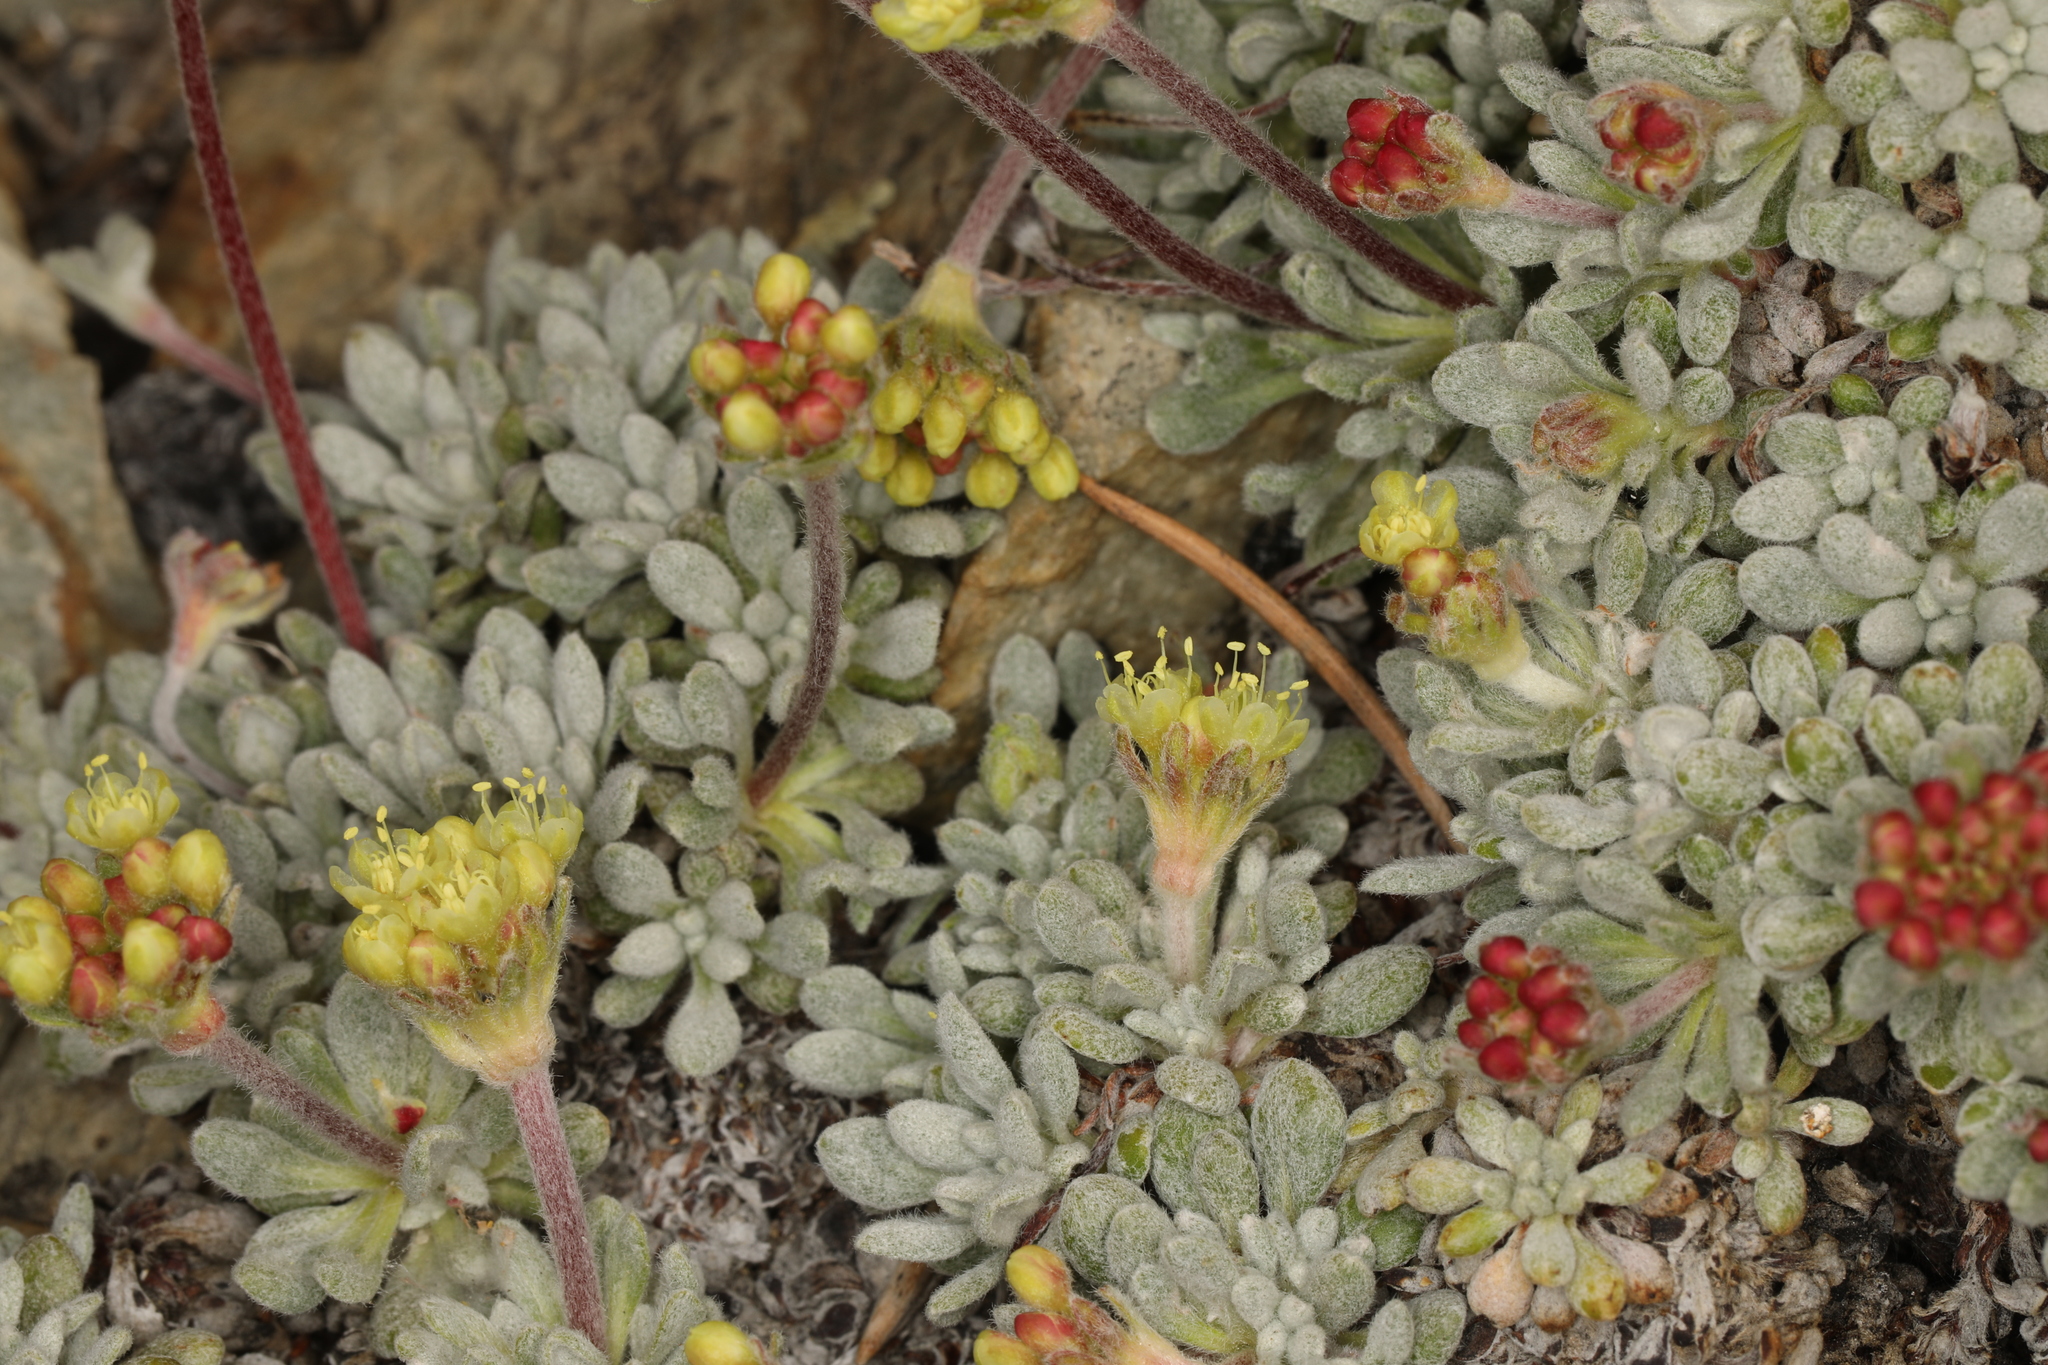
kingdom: Plantae
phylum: Tracheophyta
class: Magnoliopsida
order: Caryophyllales
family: Polygonaceae
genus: Eriogonum
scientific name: Eriogonum caespitosum
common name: Matted wild buckwheat
